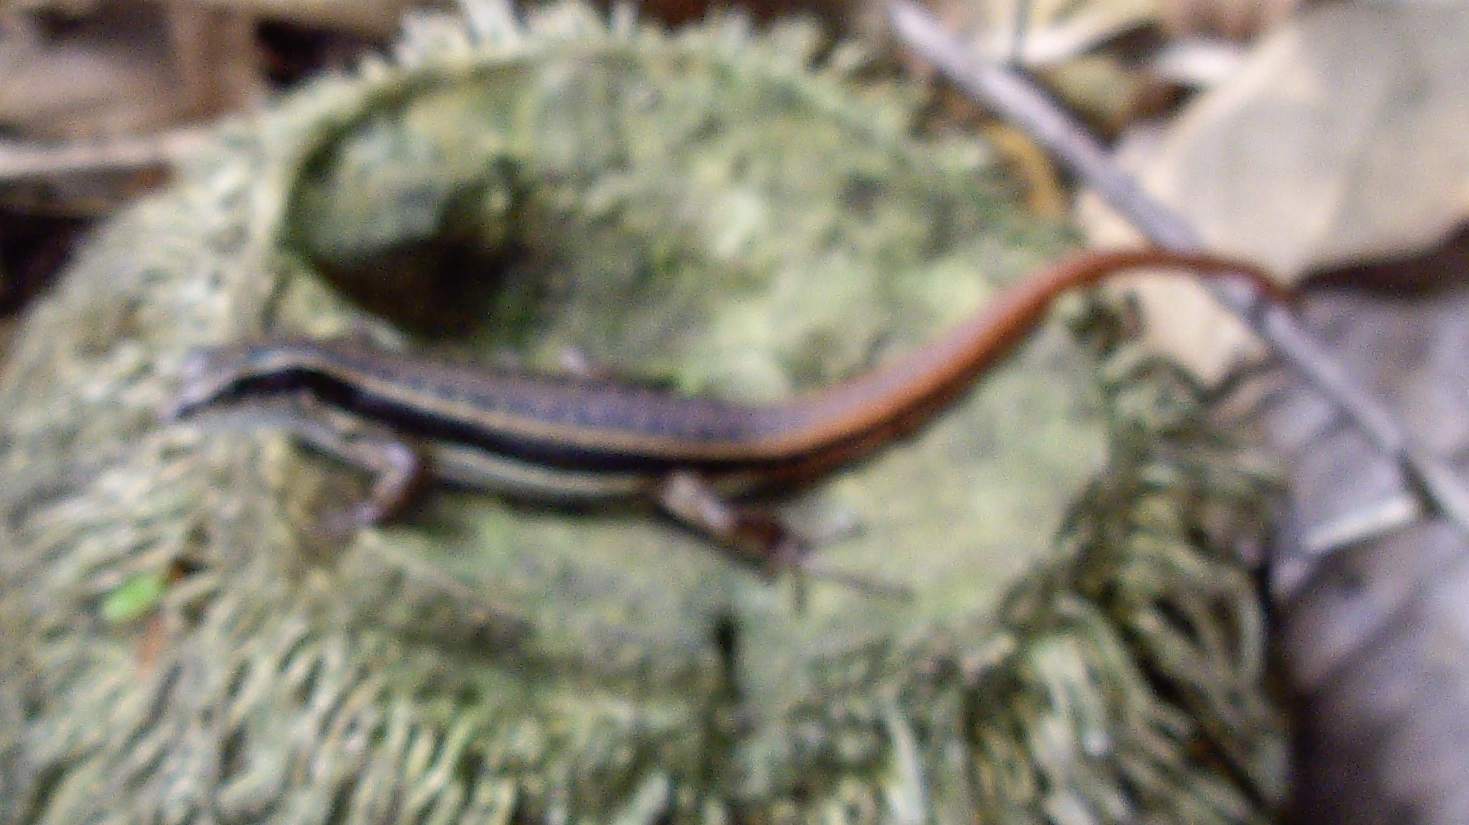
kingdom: Animalia
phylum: Chordata
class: Squamata
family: Scincidae
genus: Sphenomorphus
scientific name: Sphenomorphus dussumieri
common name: Dussumier's forest skink
